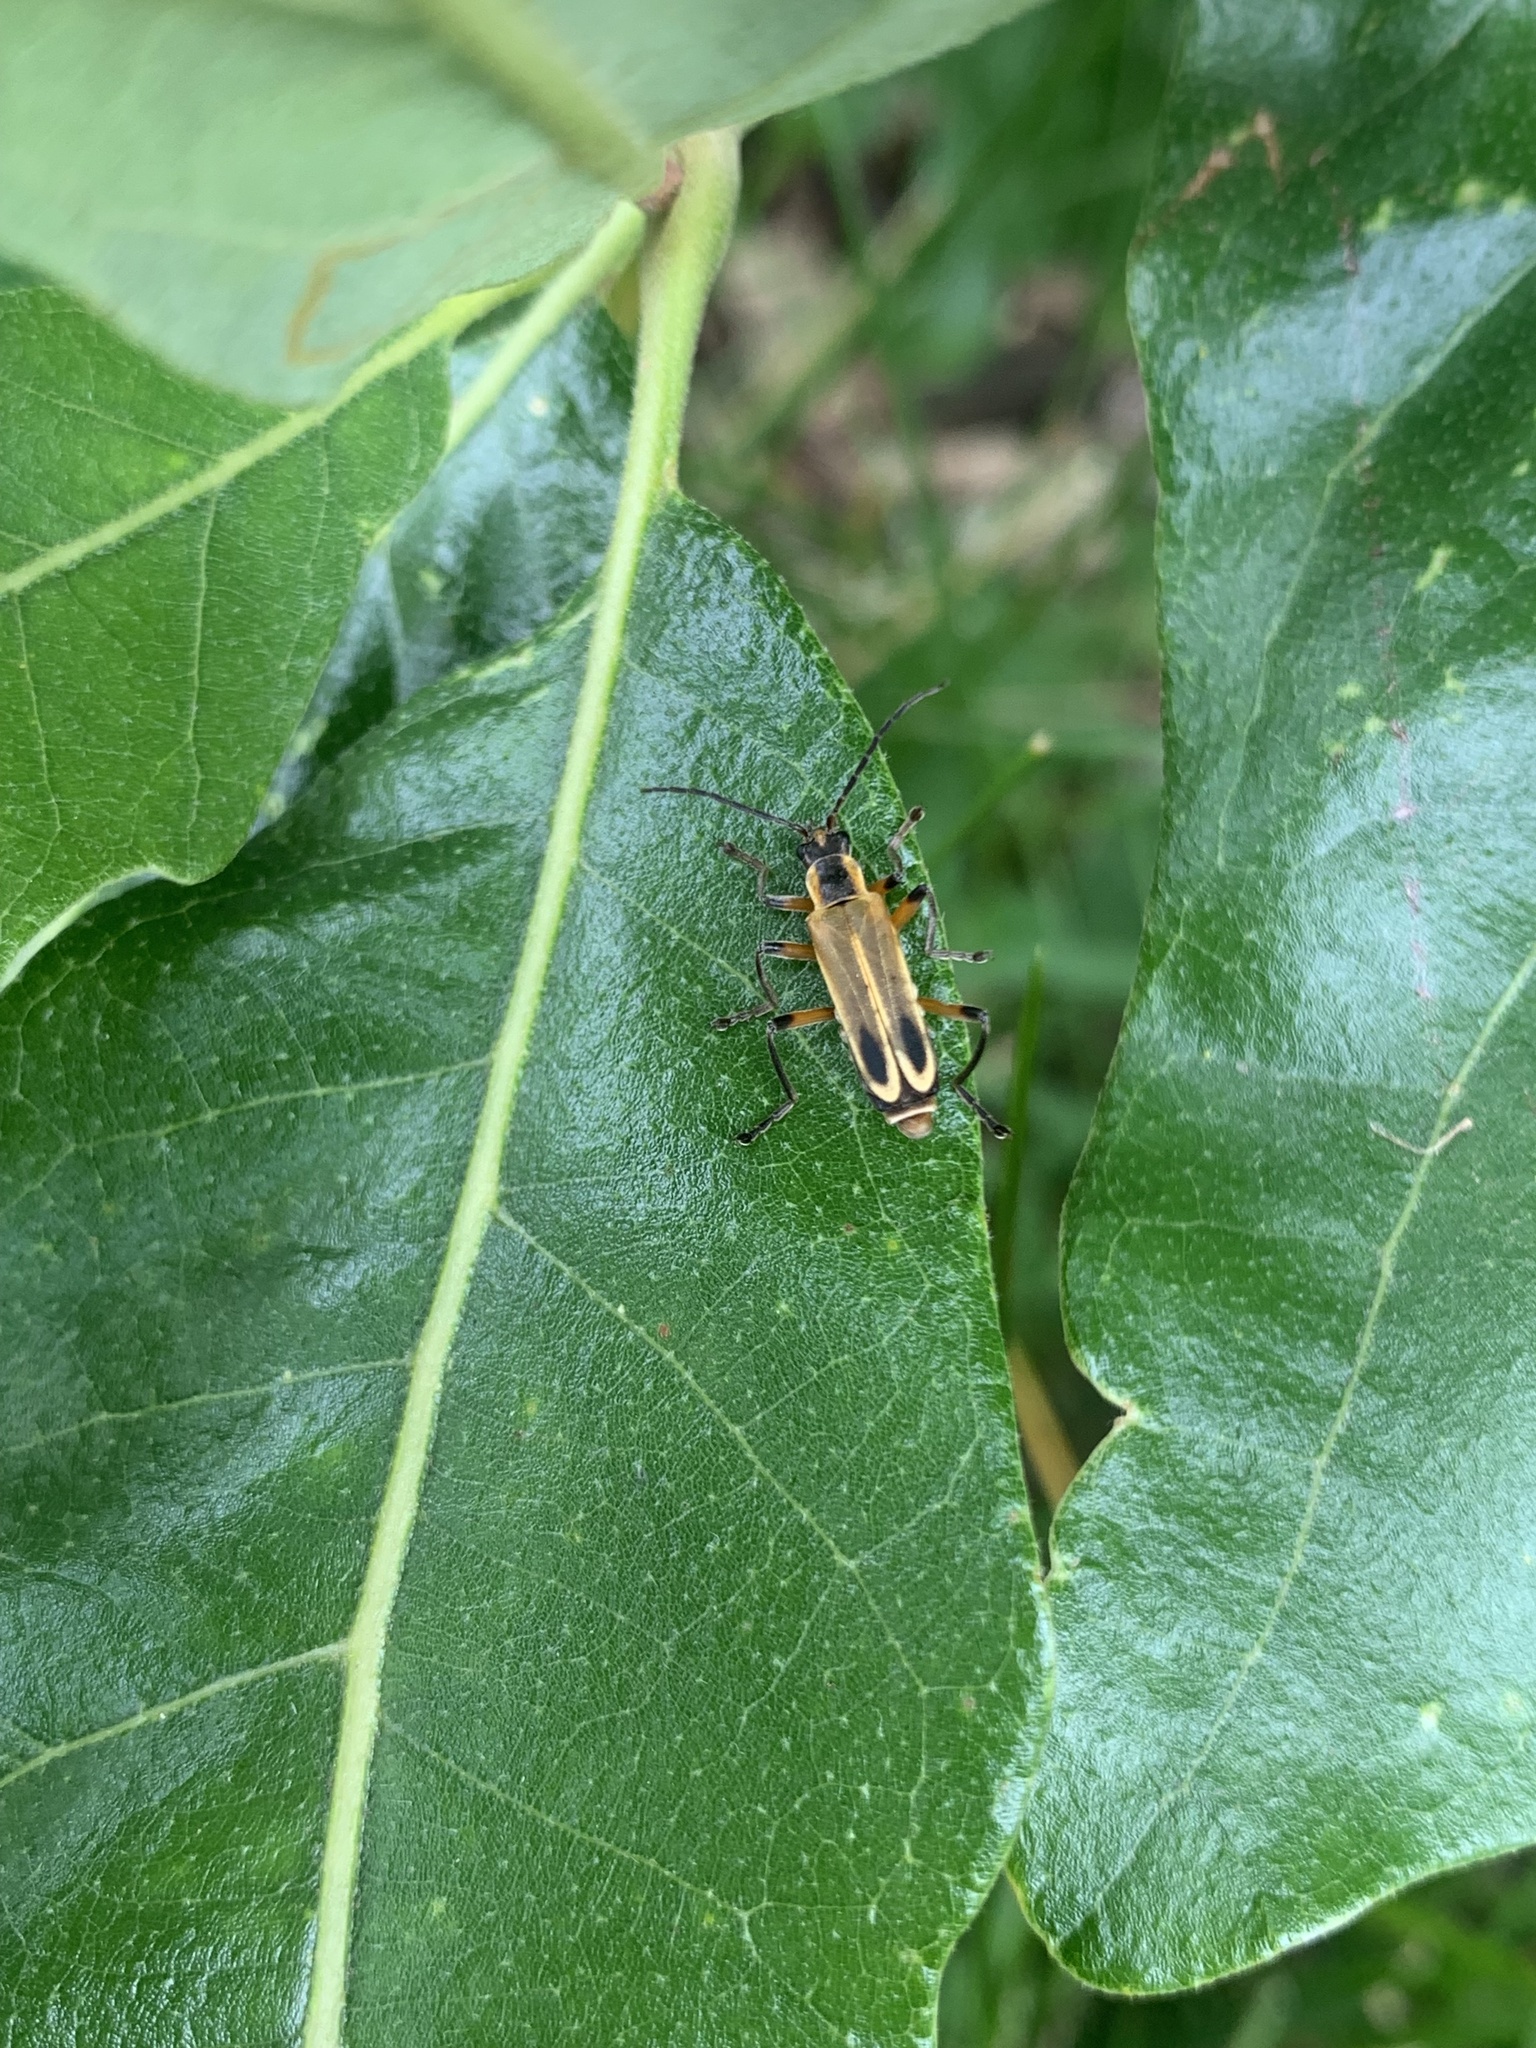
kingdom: Animalia
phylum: Arthropoda
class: Insecta
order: Coleoptera
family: Cantharidae
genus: Chauliognathus
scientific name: Chauliognathus marginatus
